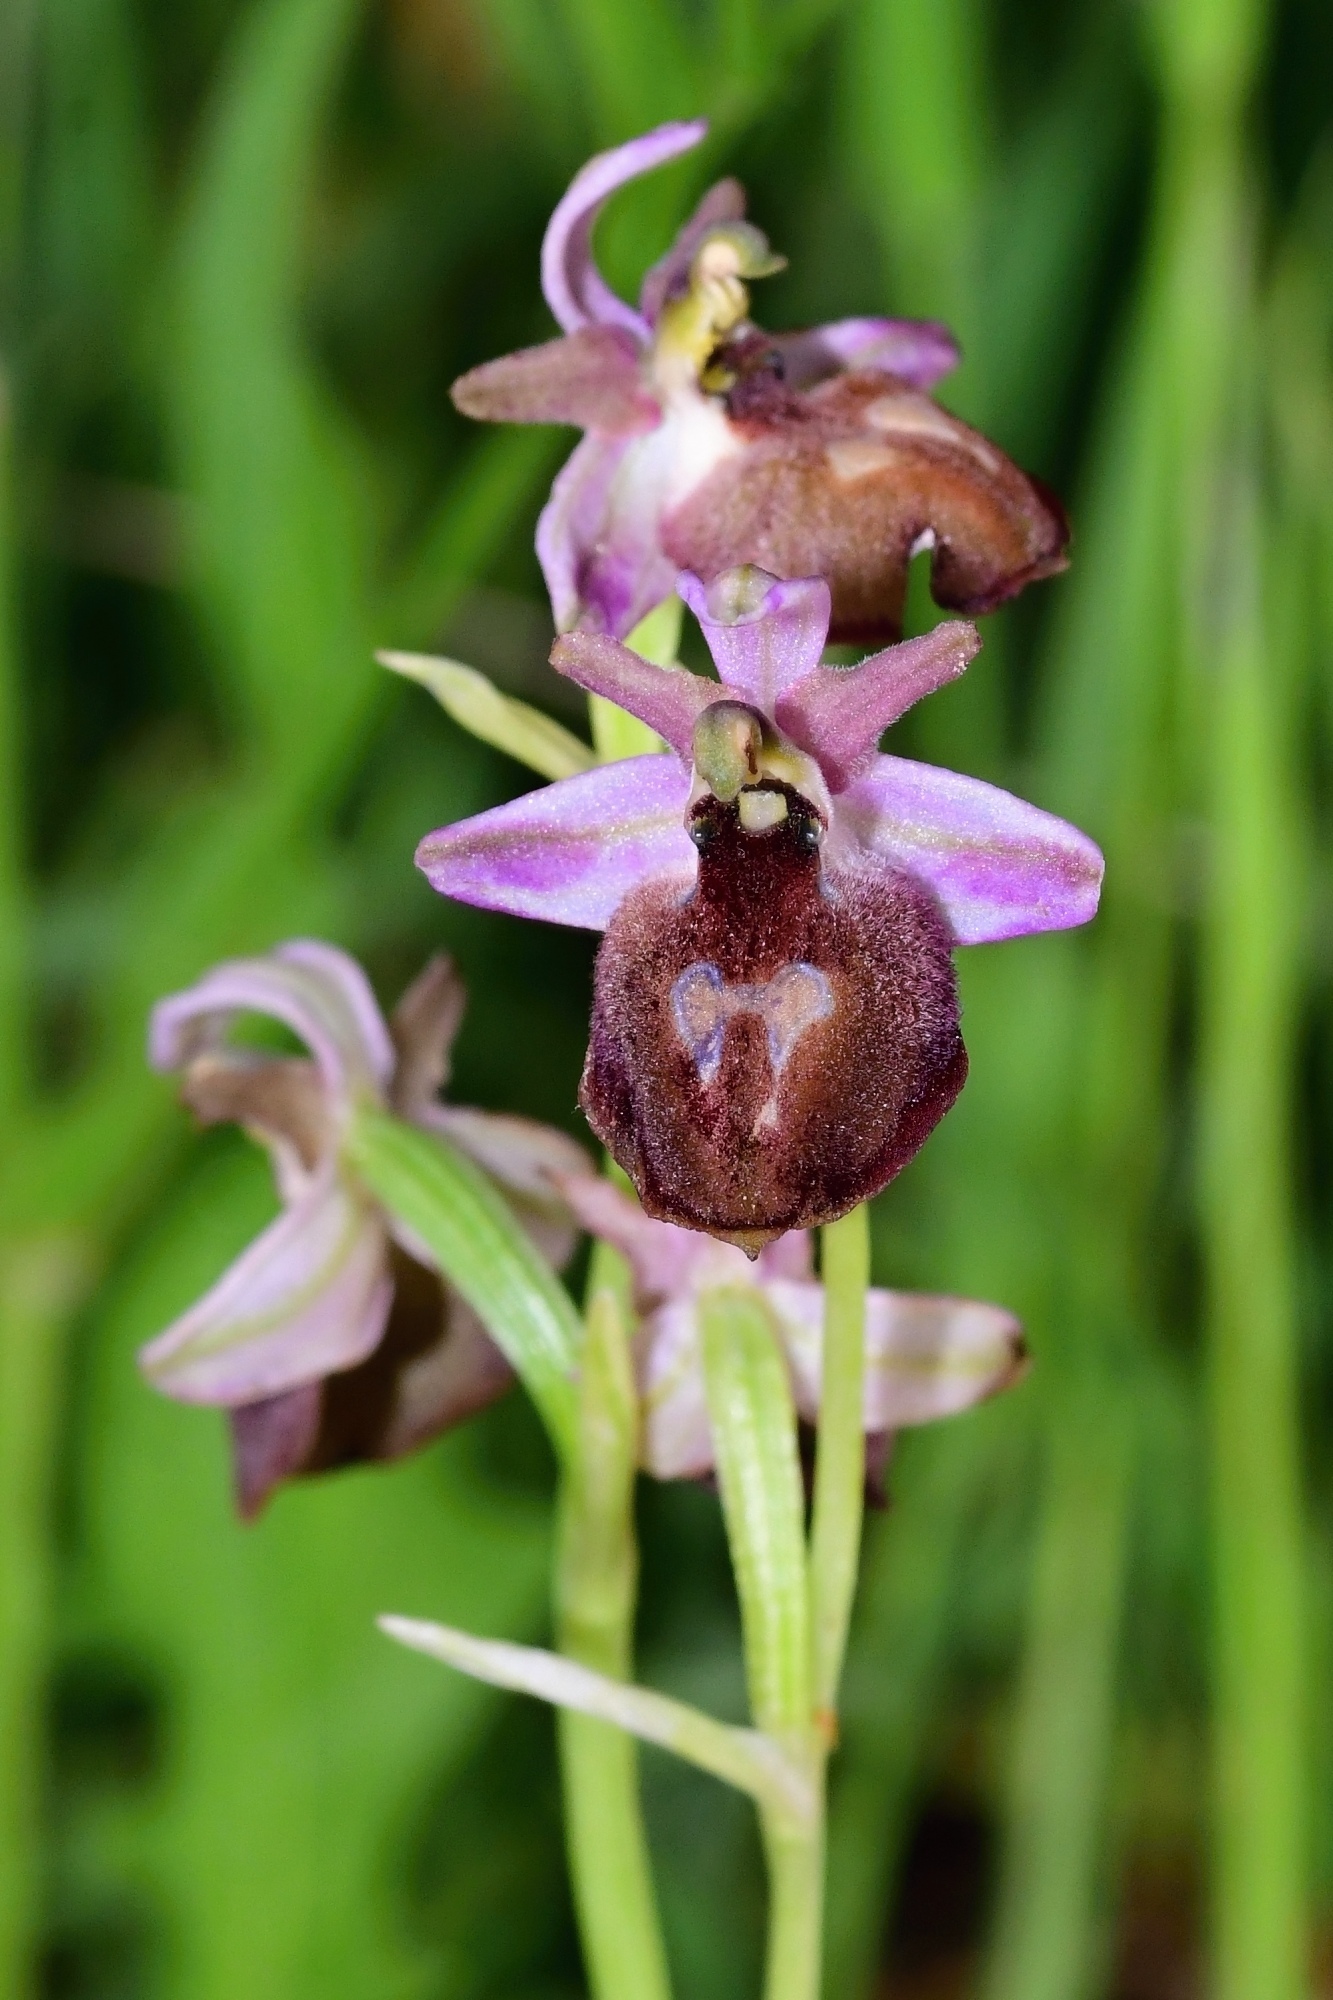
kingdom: Plantae
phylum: Tracheophyta
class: Liliopsida
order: Asparagales
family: Orchidaceae
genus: Ophrys
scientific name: Ophrys ferrum-equinum
